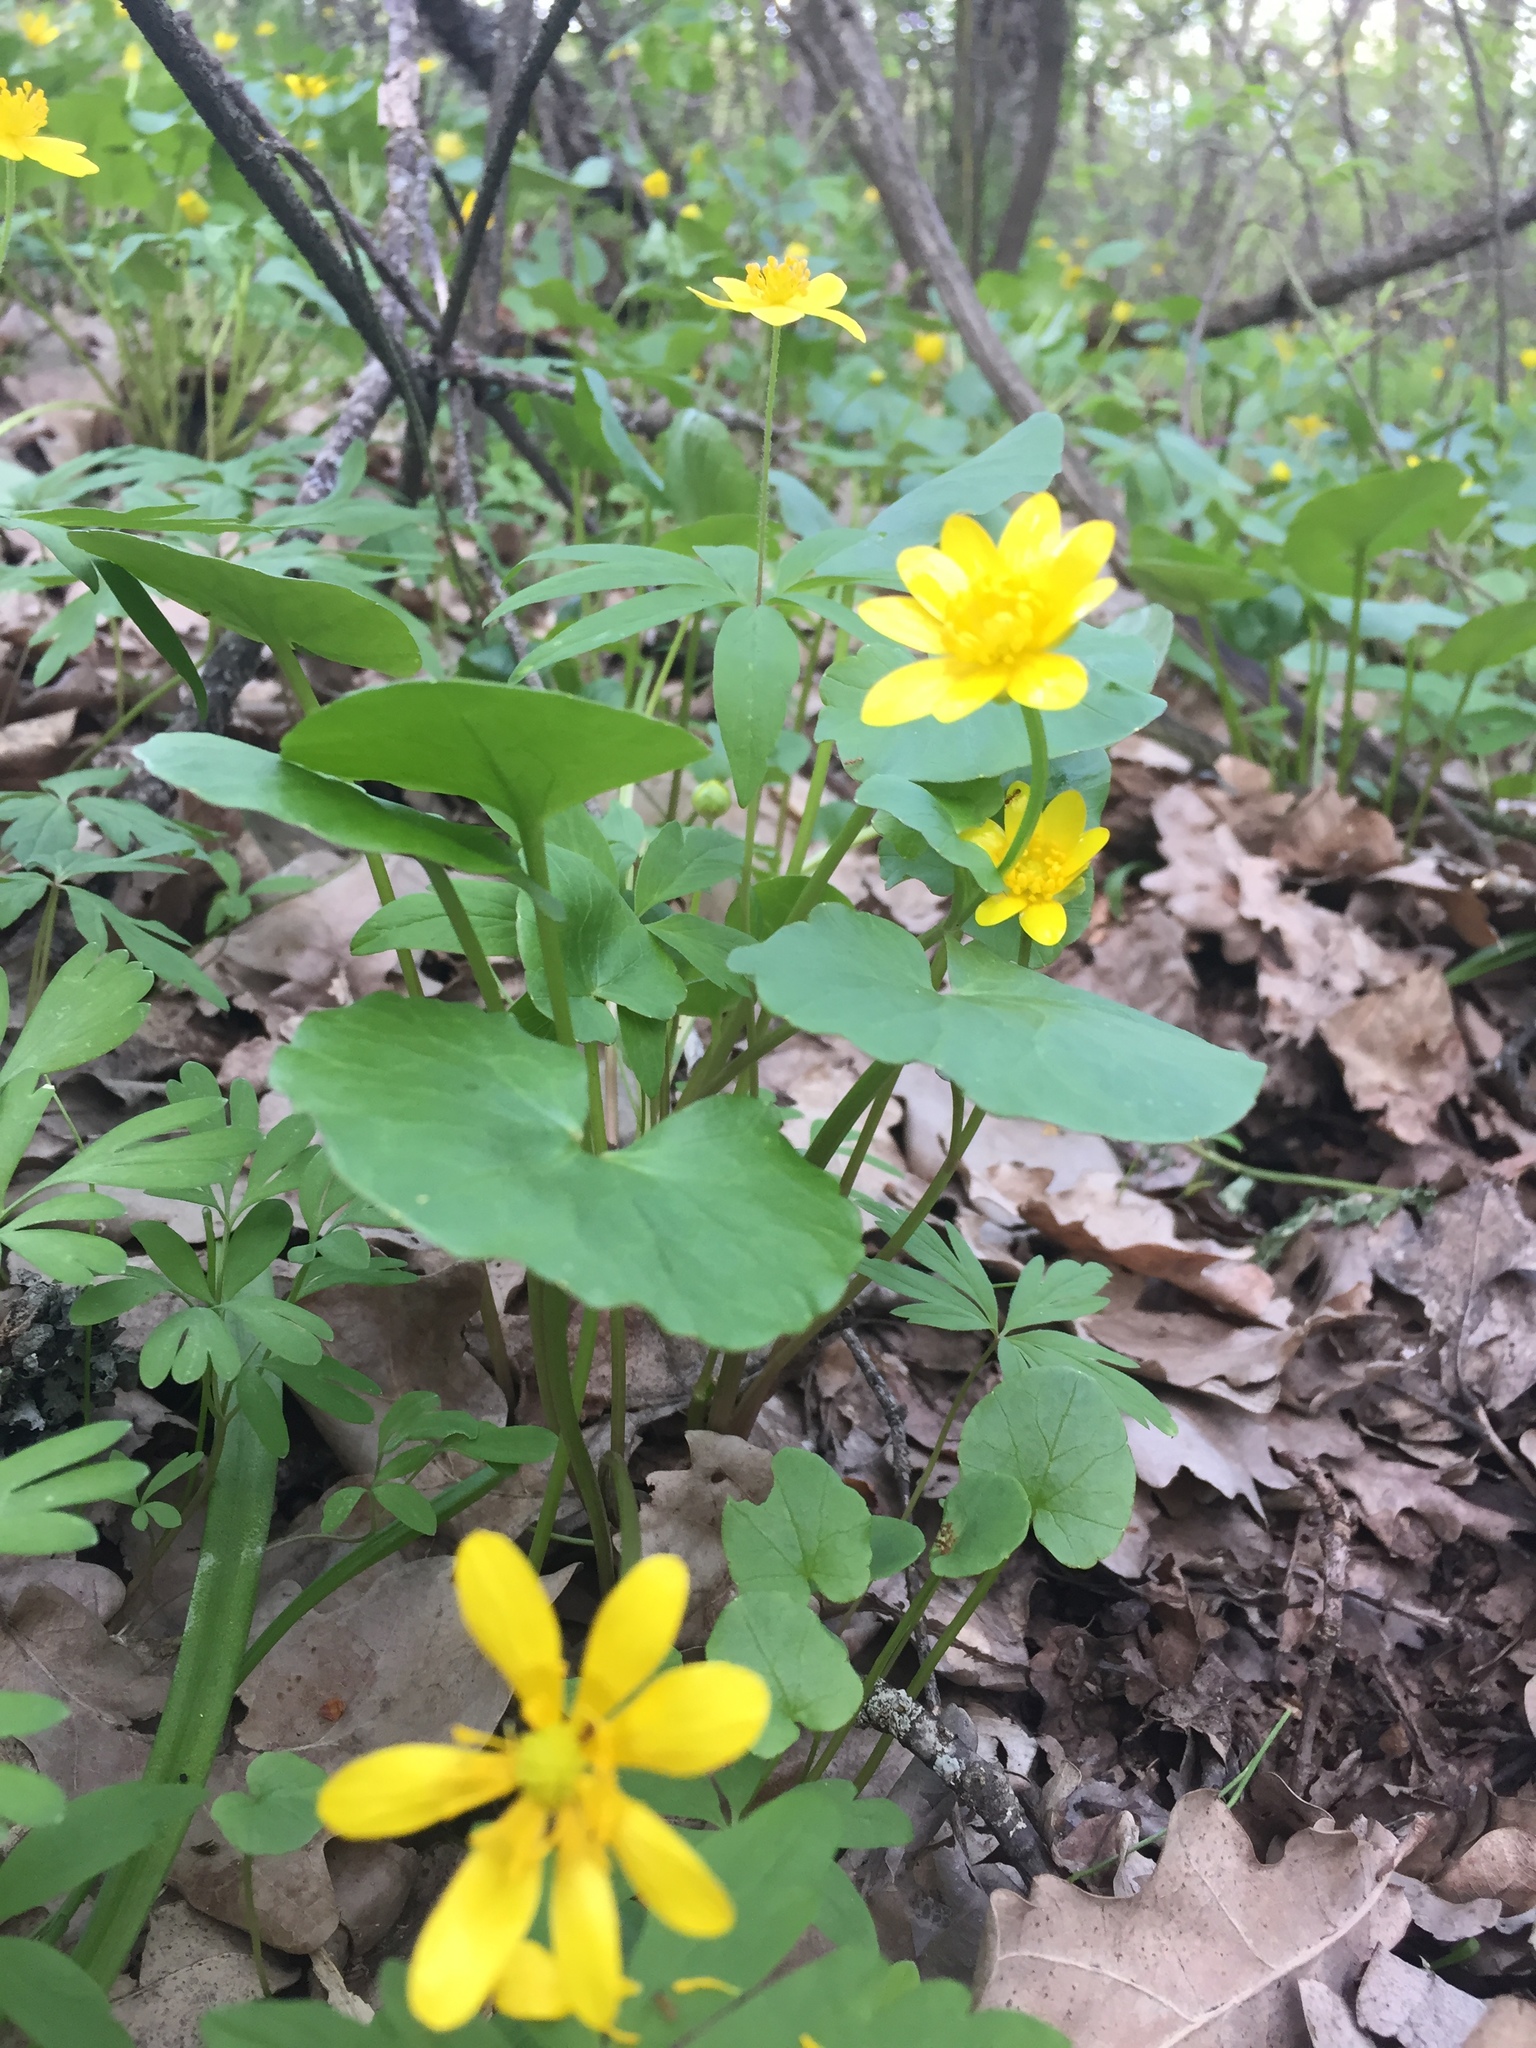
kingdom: Plantae
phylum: Tracheophyta
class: Magnoliopsida
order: Ranunculales
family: Ranunculaceae
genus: Ficaria
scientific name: Ficaria verna
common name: Lesser celandine
